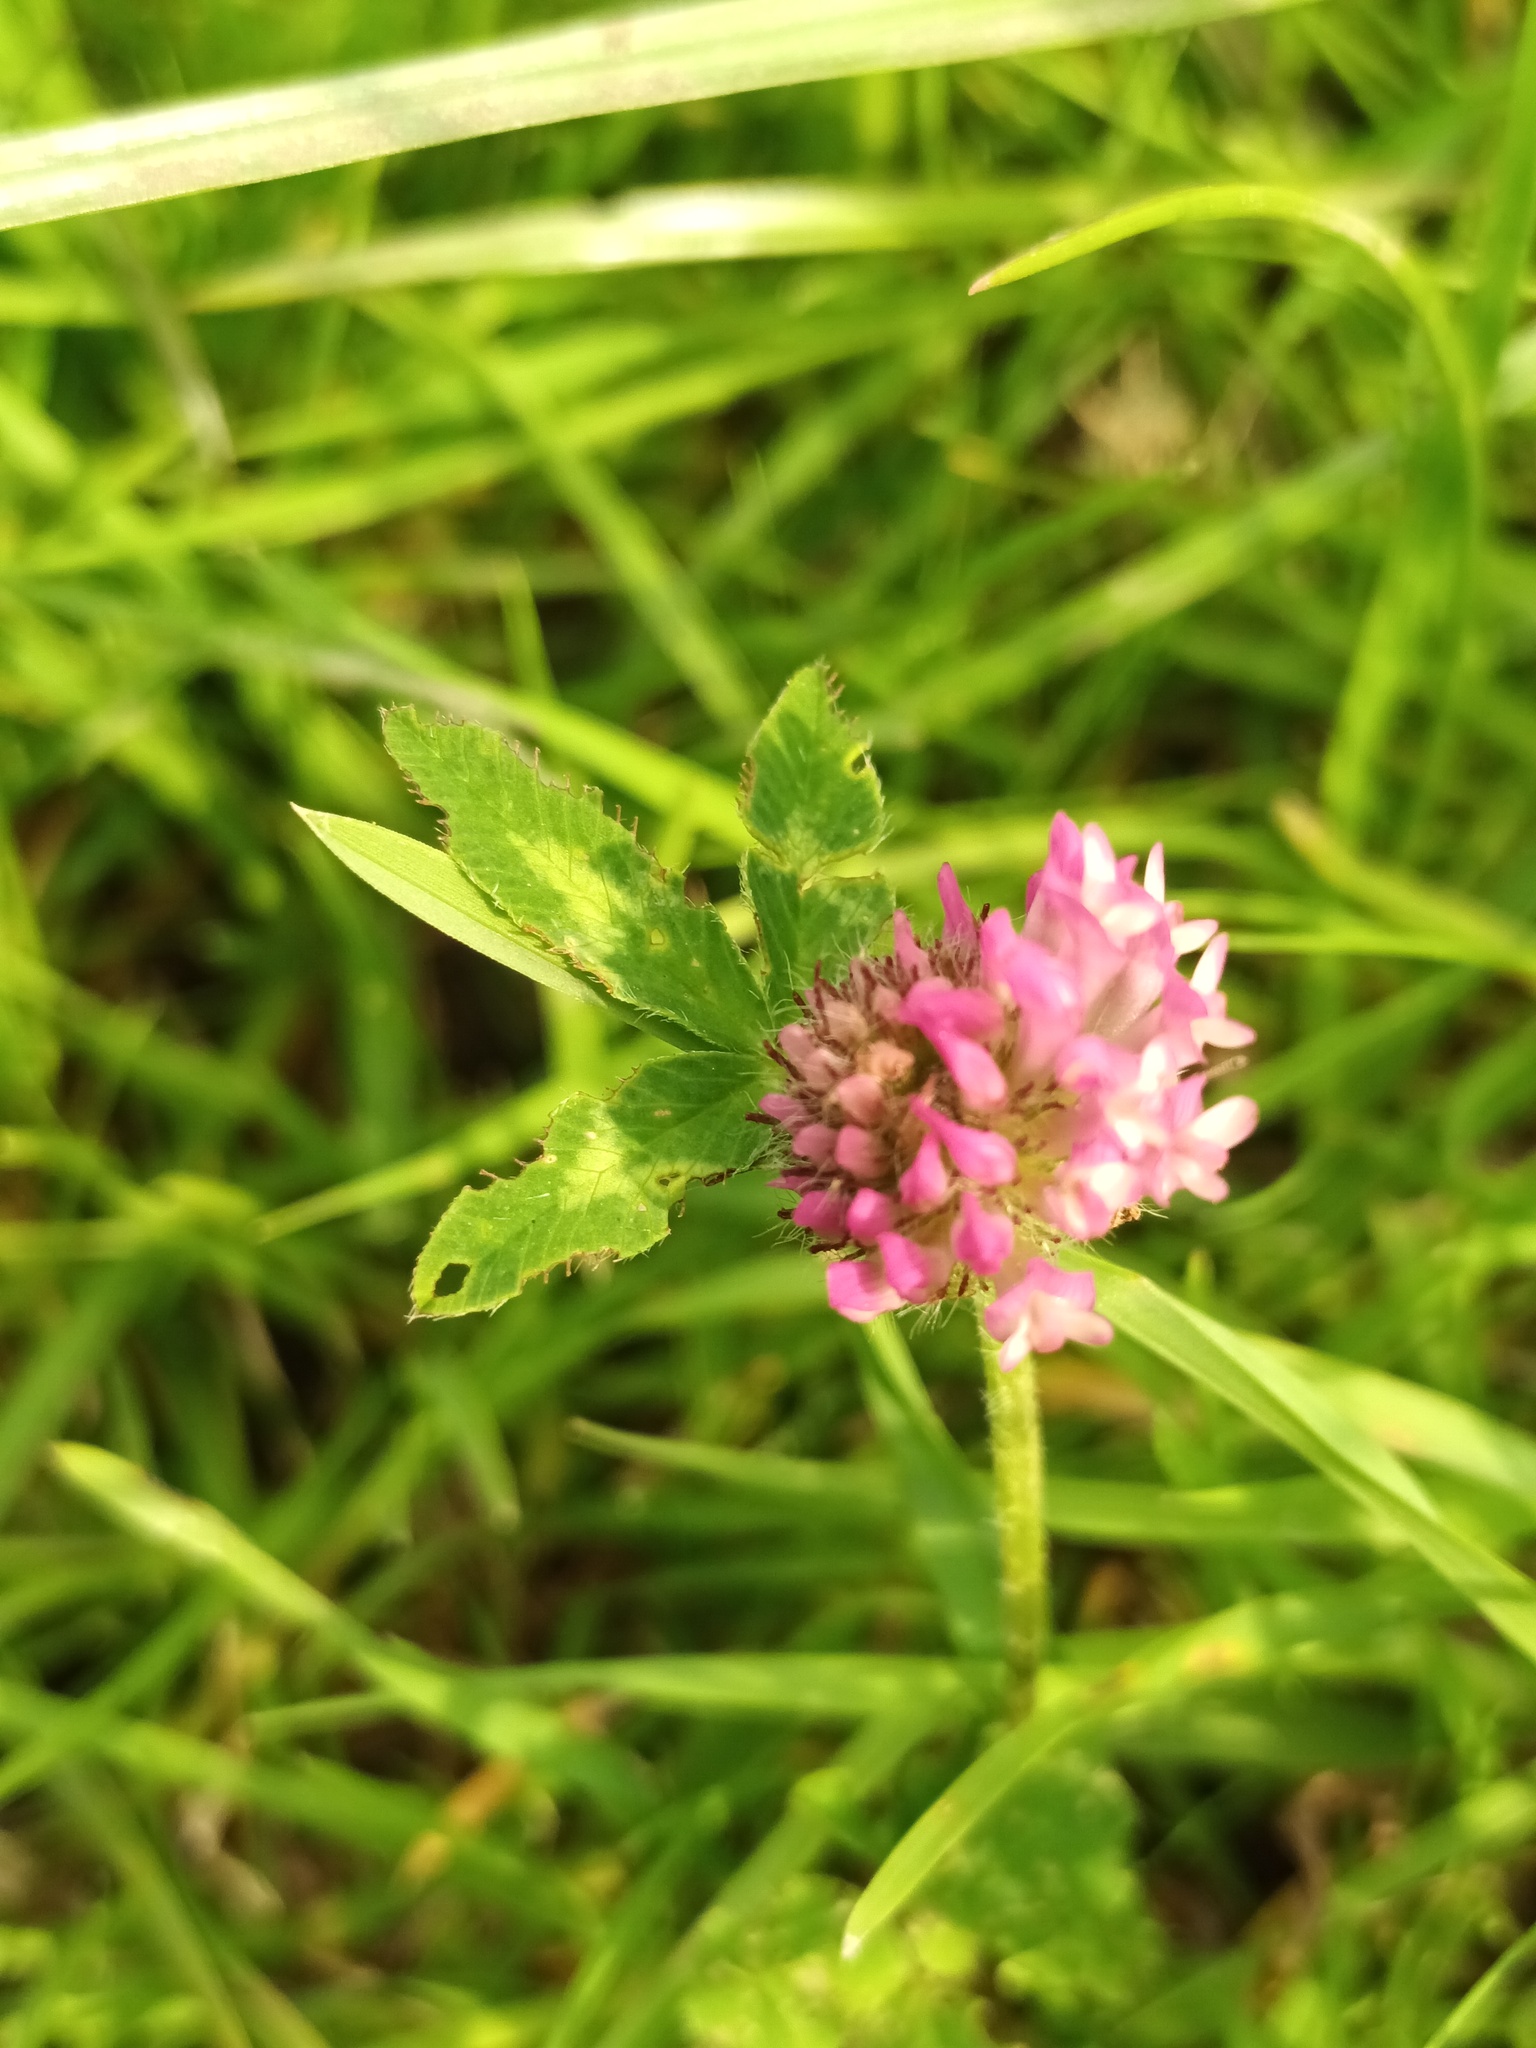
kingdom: Plantae
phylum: Tracheophyta
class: Magnoliopsida
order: Fabales
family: Fabaceae
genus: Trifolium
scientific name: Trifolium pratense
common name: Red clover
